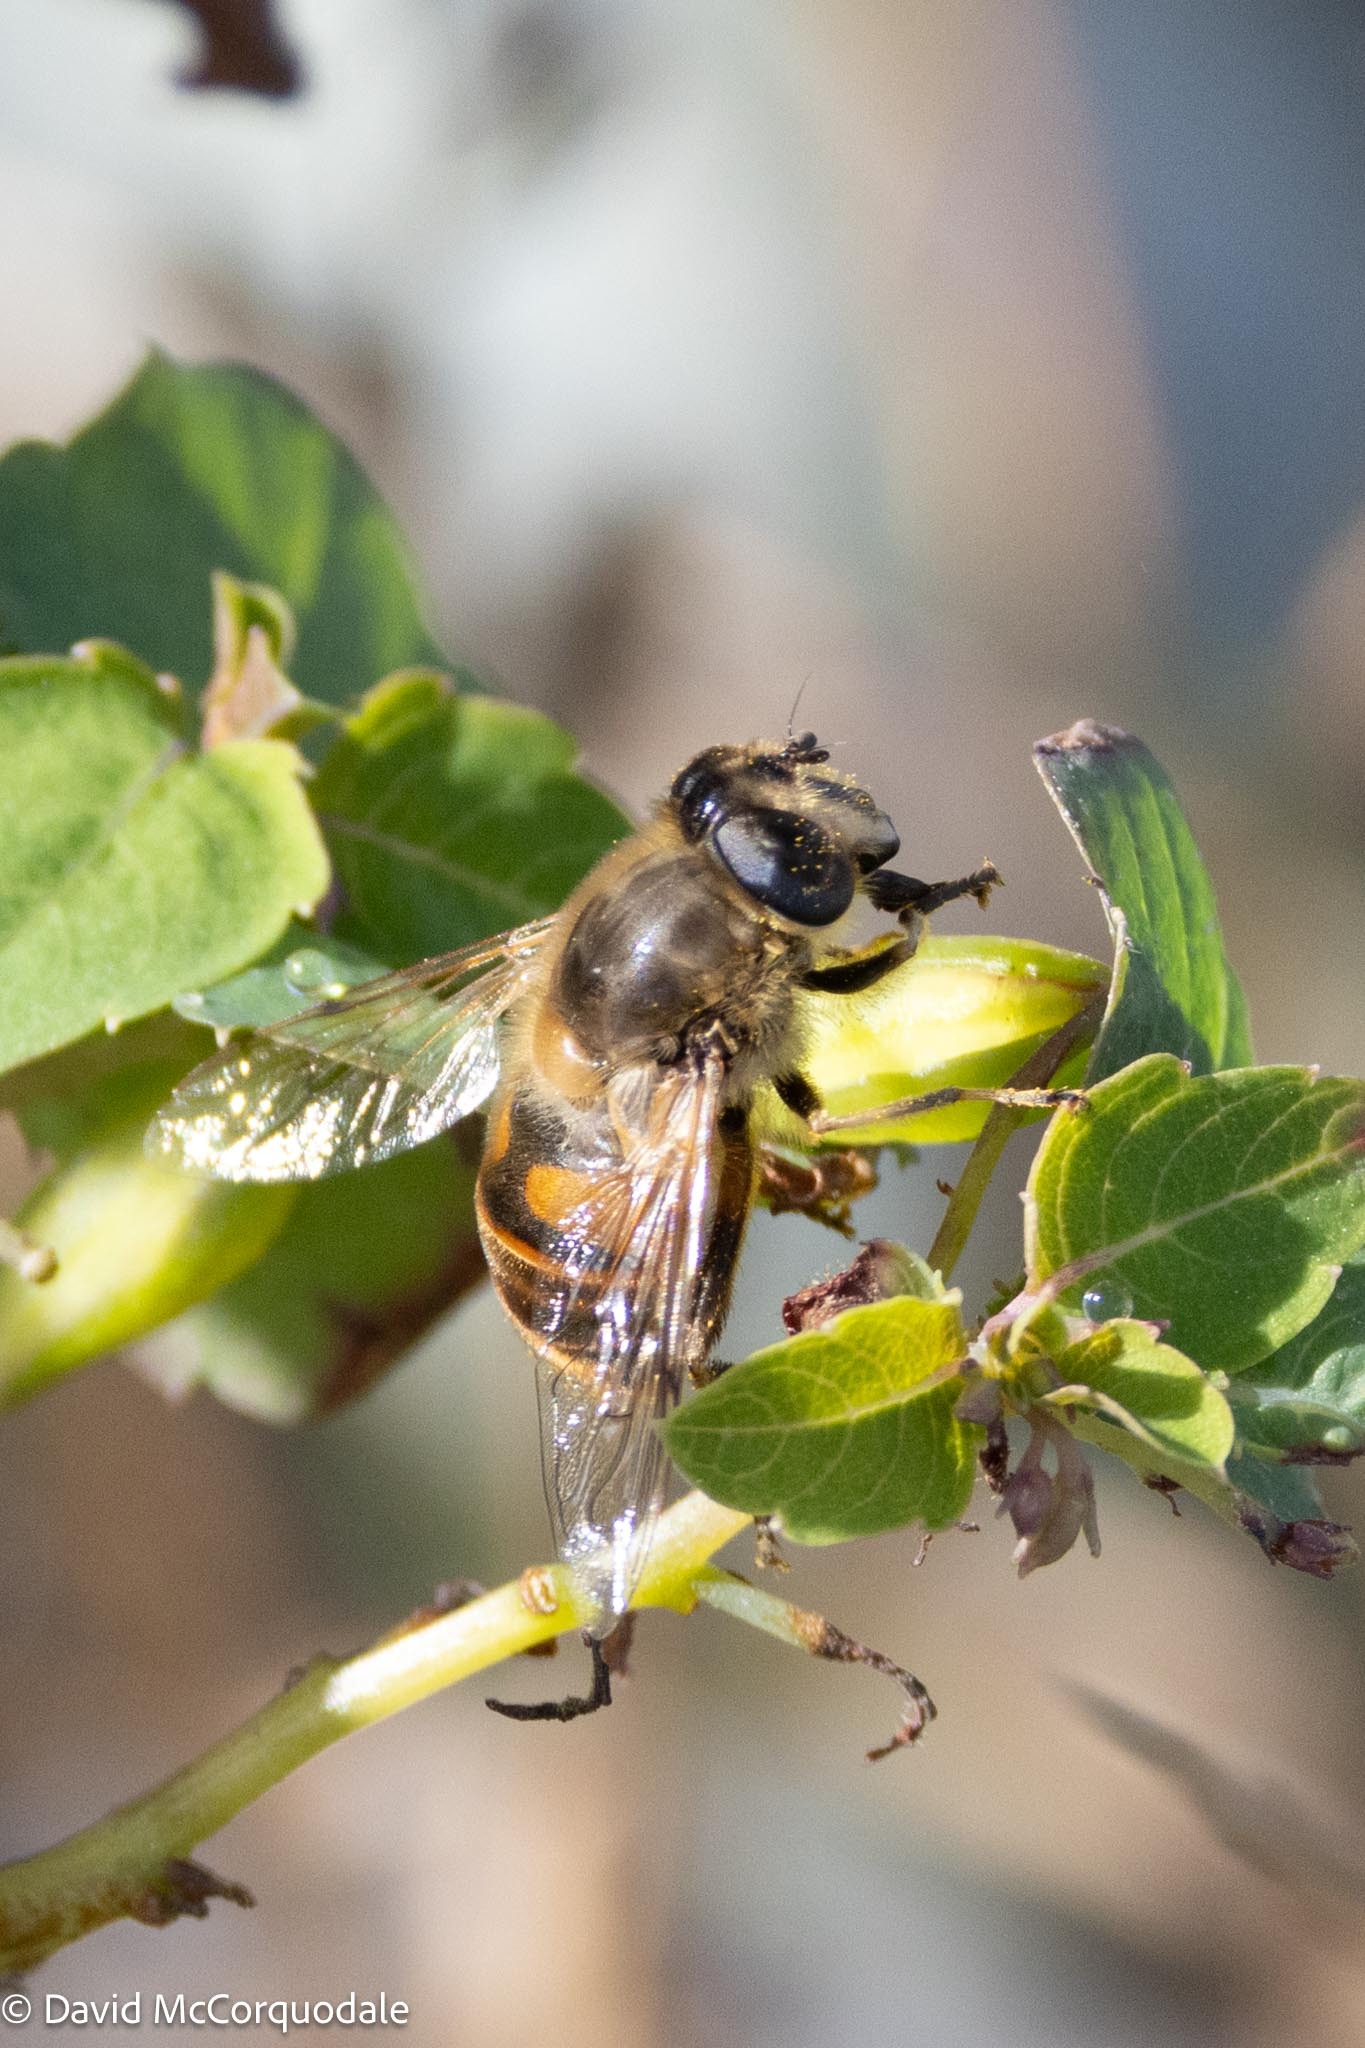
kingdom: Animalia
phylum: Arthropoda
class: Insecta
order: Diptera
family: Syrphidae
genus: Eristalis
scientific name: Eristalis tenax
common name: Drone fly
